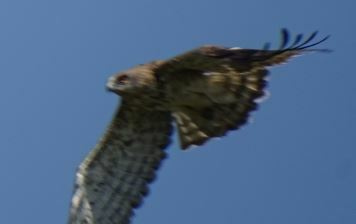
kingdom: Animalia
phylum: Chordata
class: Aves
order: Accipitriformes
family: Accipitridae
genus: Circaetus
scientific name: Circaetus gallicus
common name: Short-toed snake eagle
